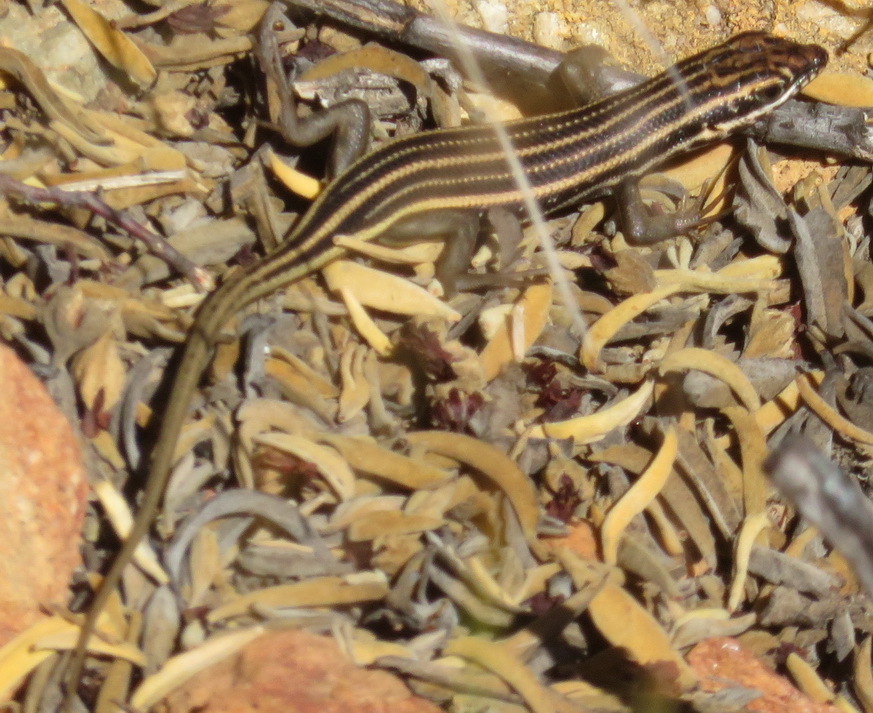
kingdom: Animalia
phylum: Chordata
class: Squamata
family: Scincidae
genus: Trachylepis
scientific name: Trachylepis sulcata
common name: Western rock skink
